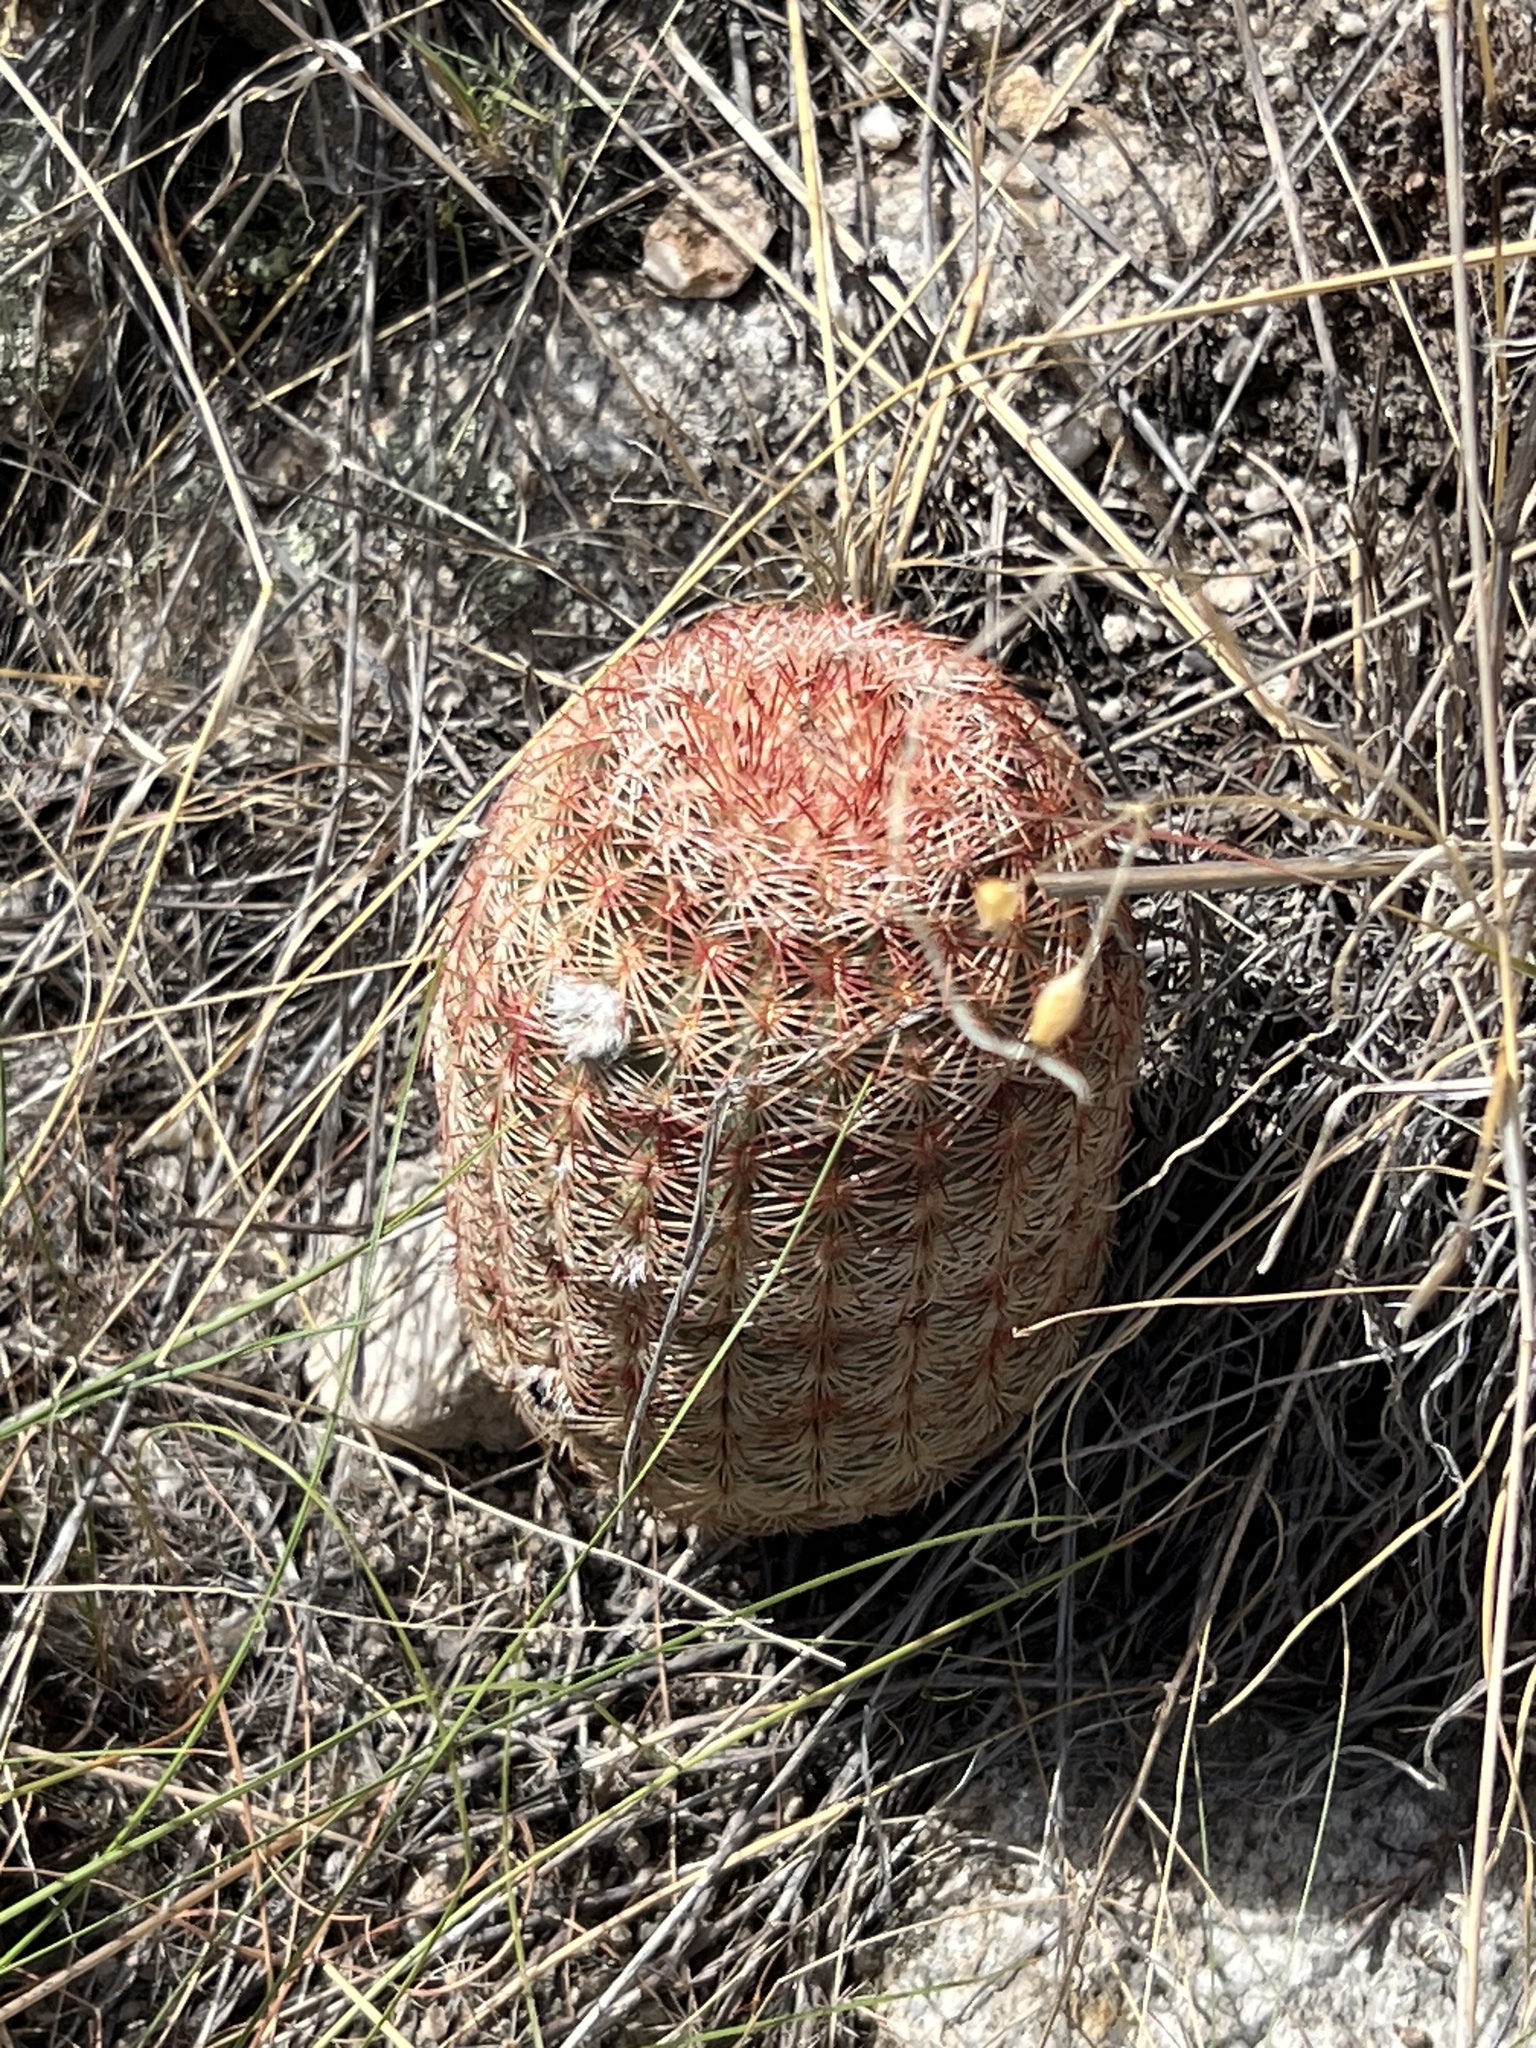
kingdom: Plantae
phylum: Tracheophyta
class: Magnoliopsida
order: Caryophyllales
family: Cactaceae
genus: Echinocereus
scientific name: Echinocereus rigidissimus
